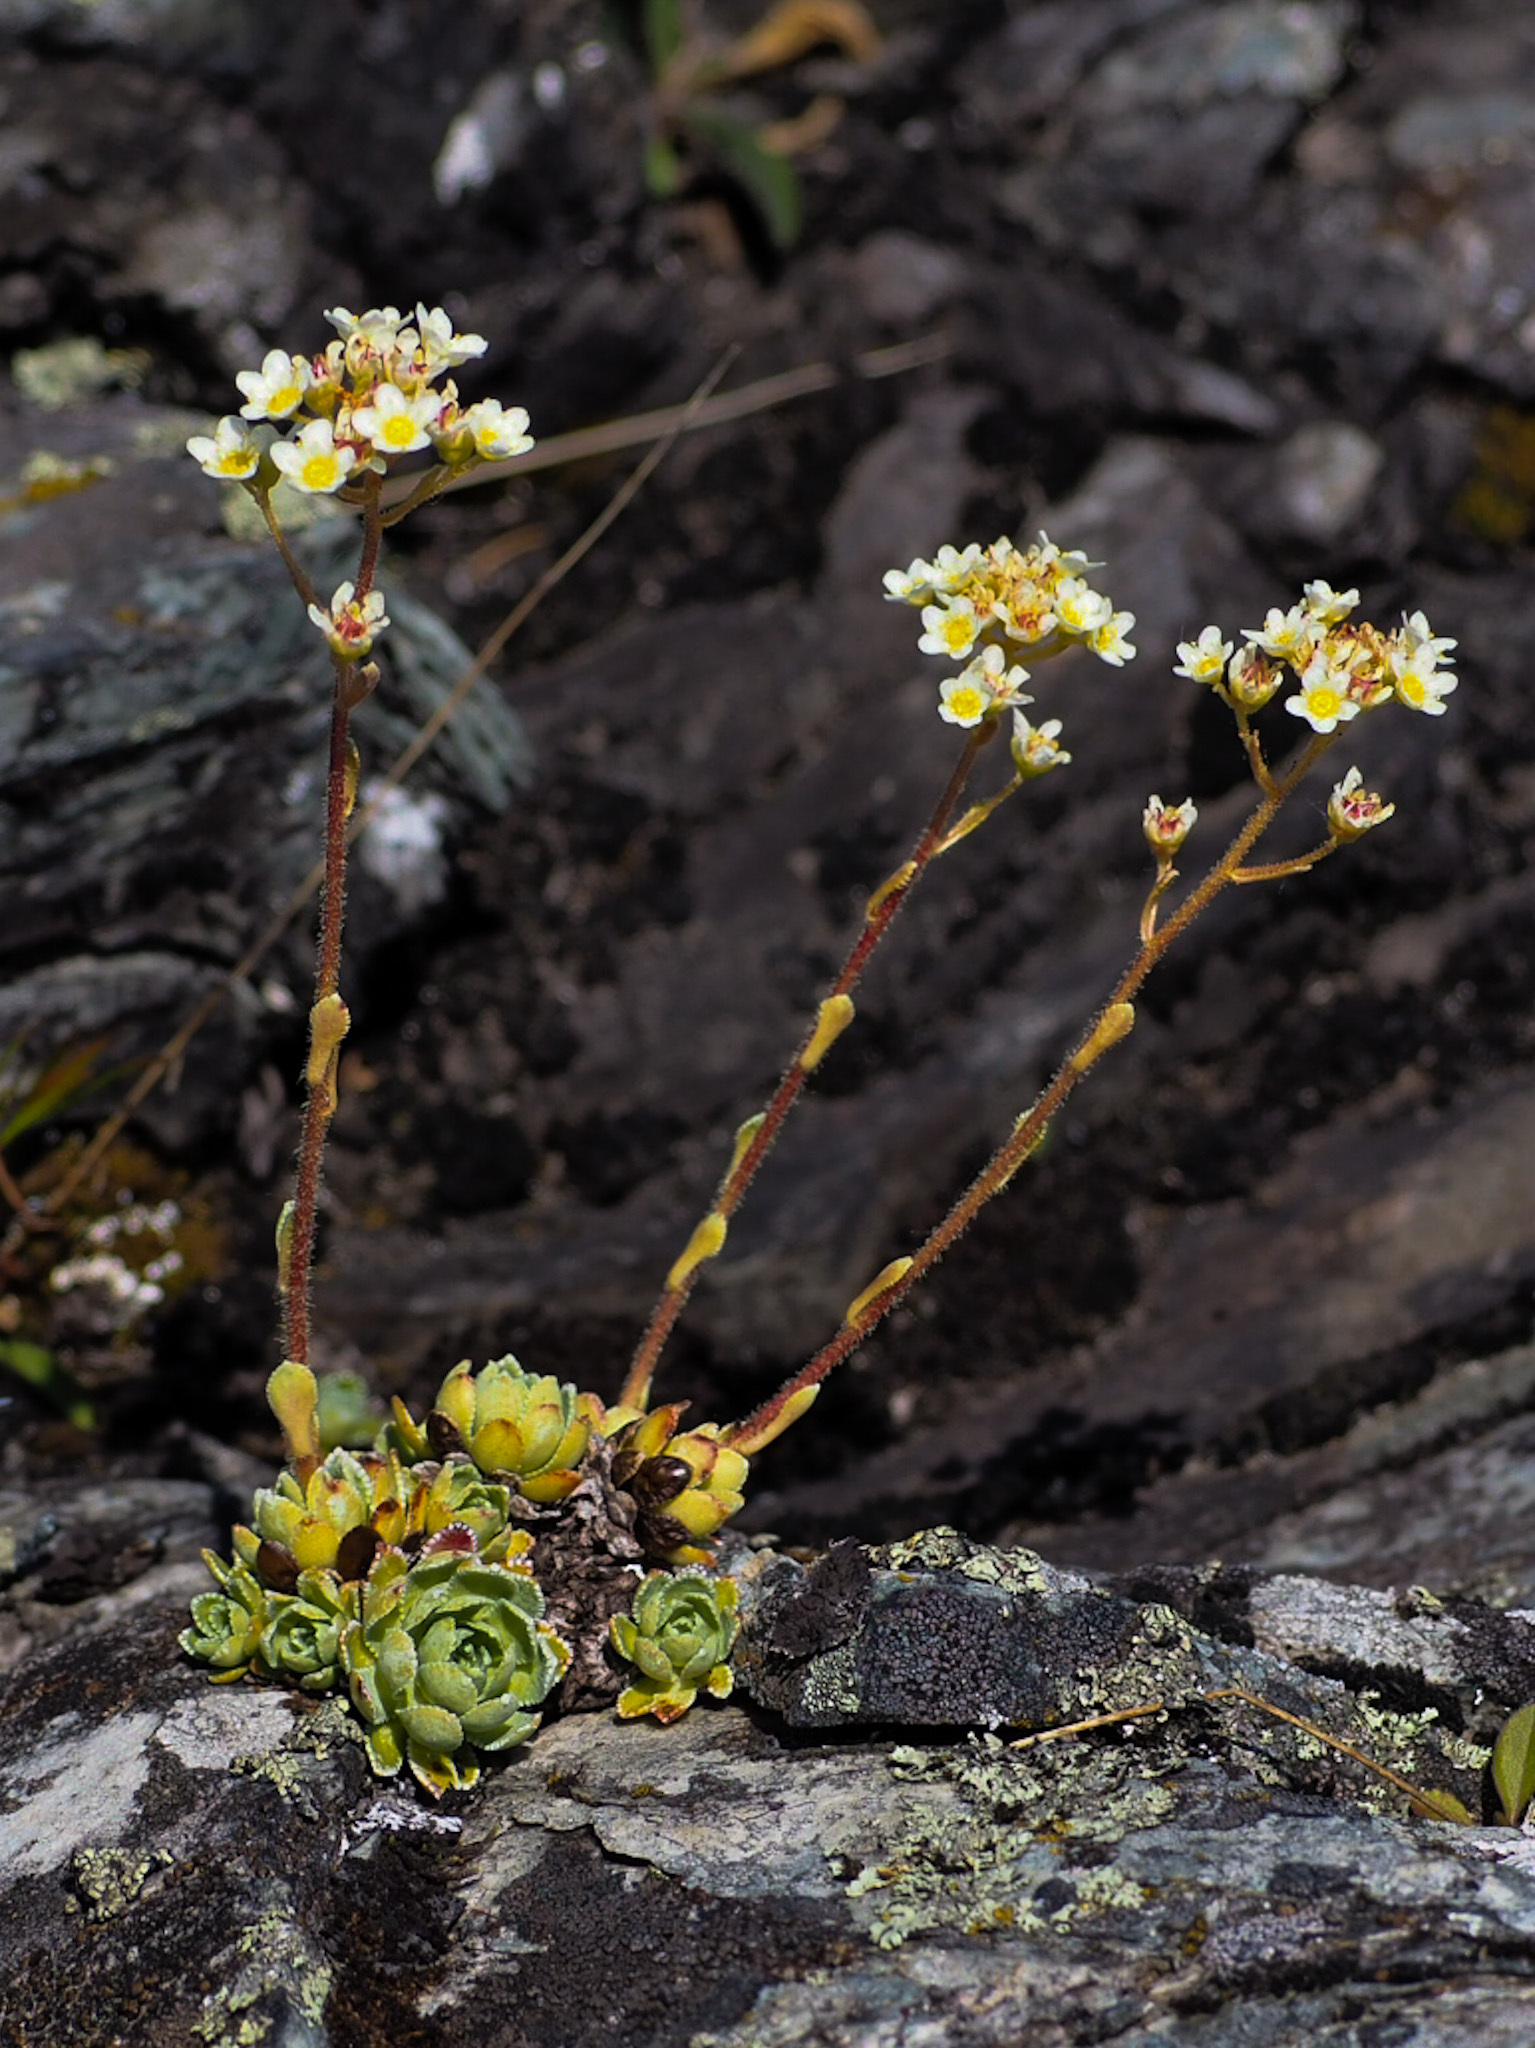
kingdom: Plantae
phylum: Tracheophyta
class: Magnoliopsida
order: Saxifragales
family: Saxifragaceae
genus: Saxifraga
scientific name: Saxifraga paniculata
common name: Livelong saxifrage
